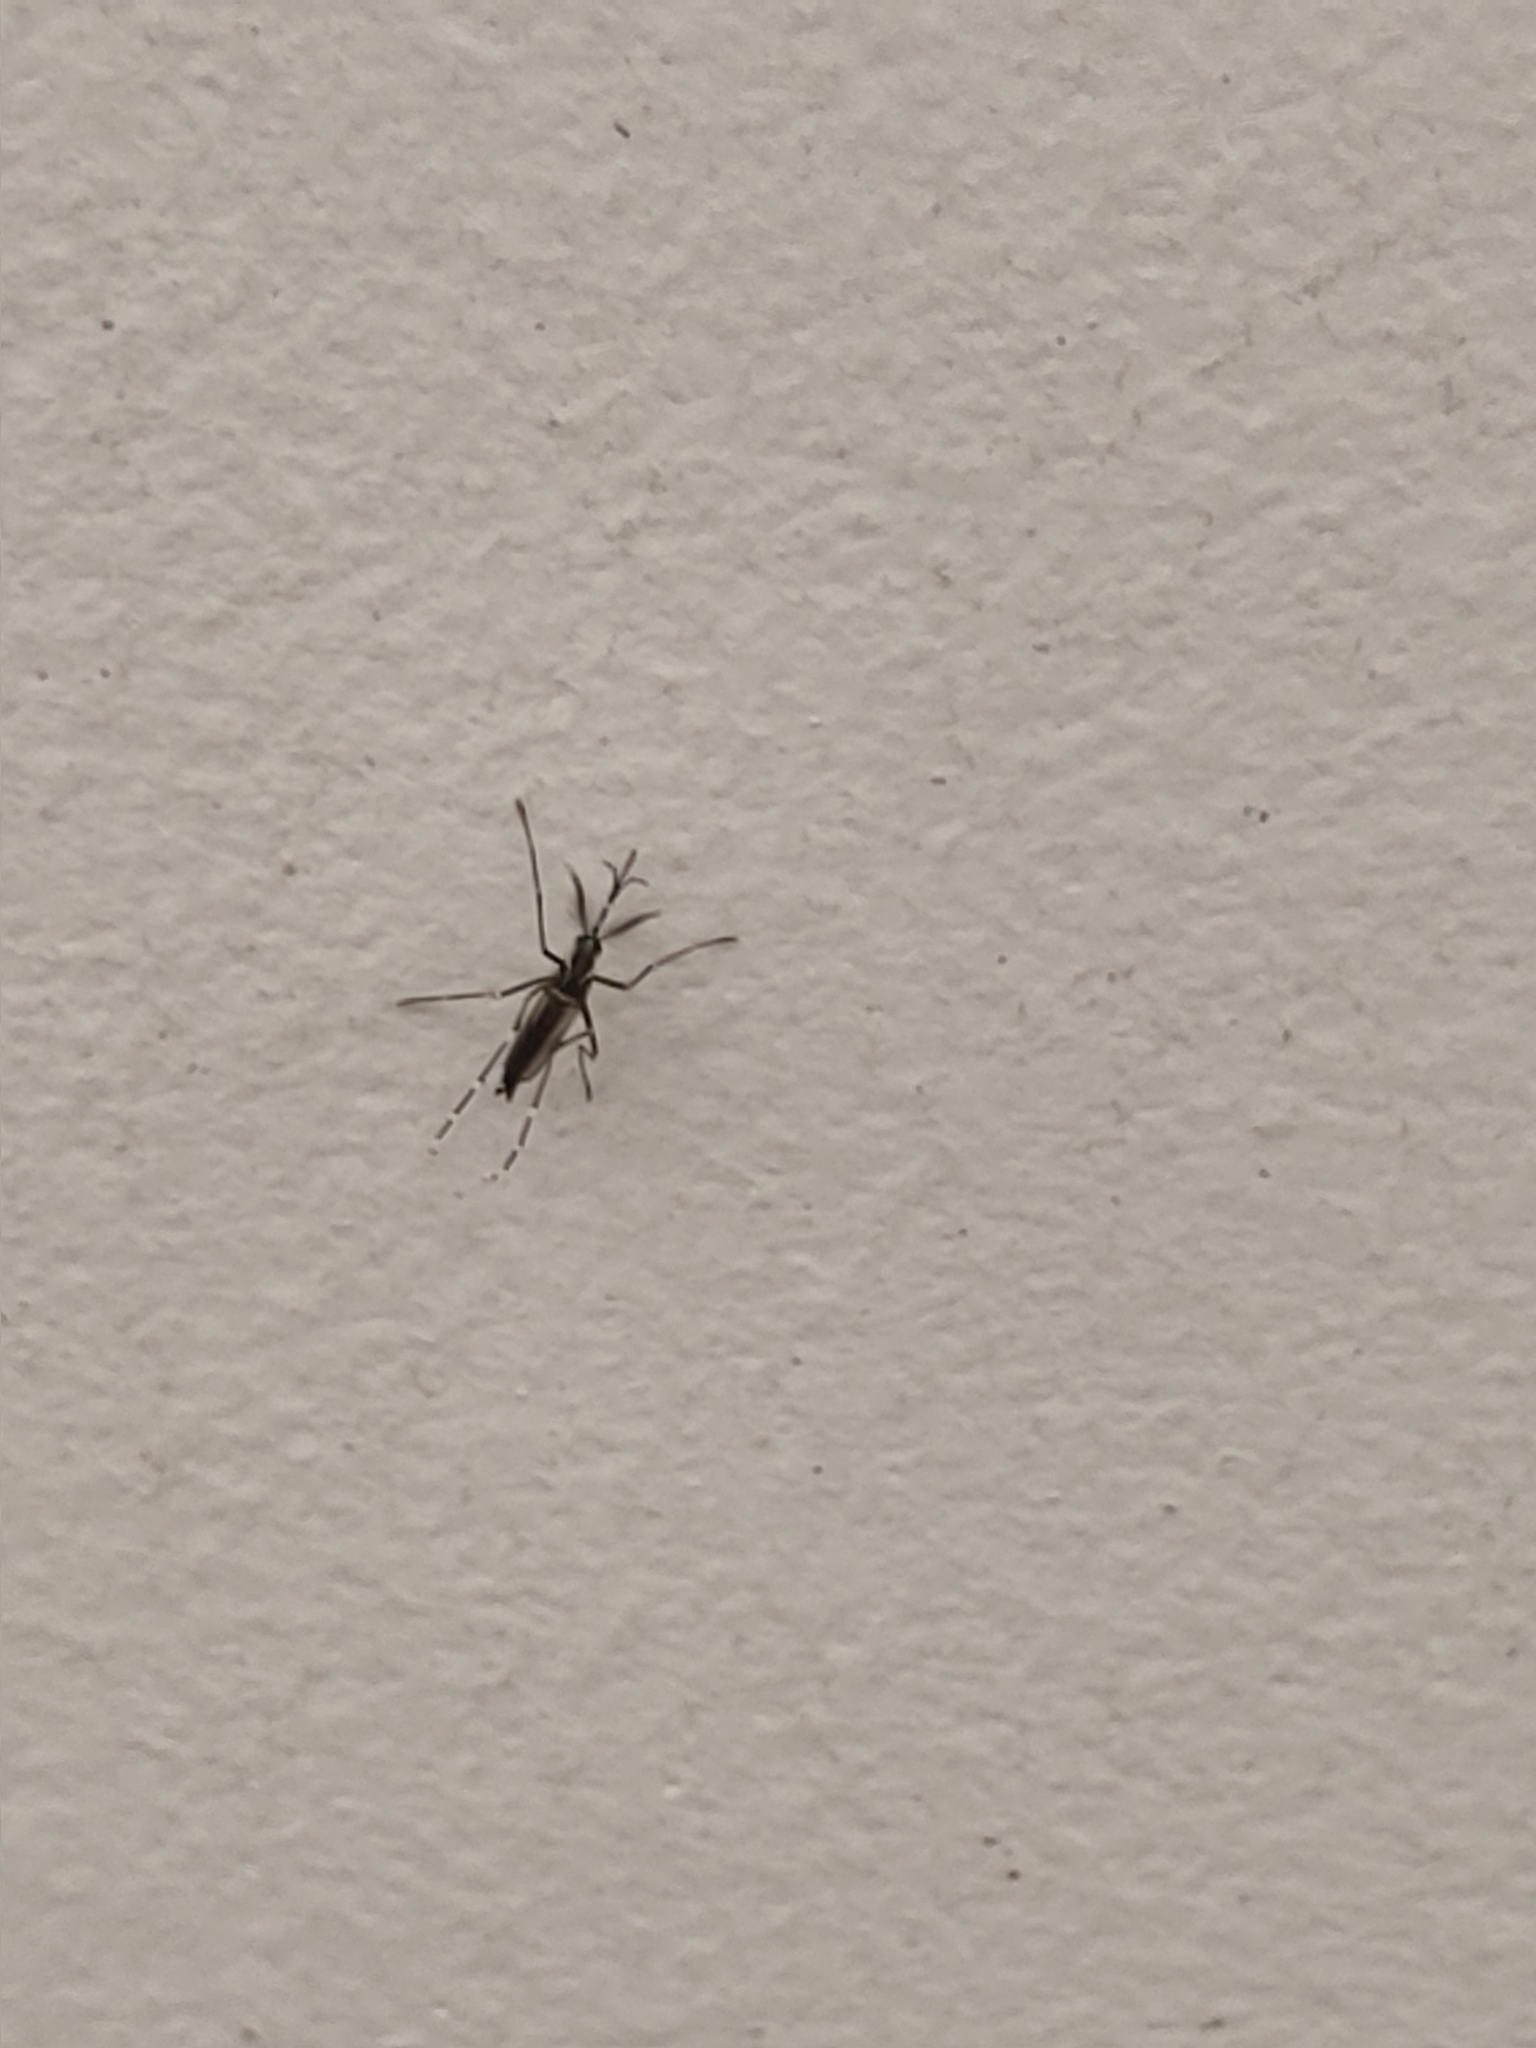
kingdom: Animalia
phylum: Arthropoda
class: Insecta
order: Diptera
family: Culicidae
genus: Aedes
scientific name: Aedes albopictus
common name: Tiger mosquito
